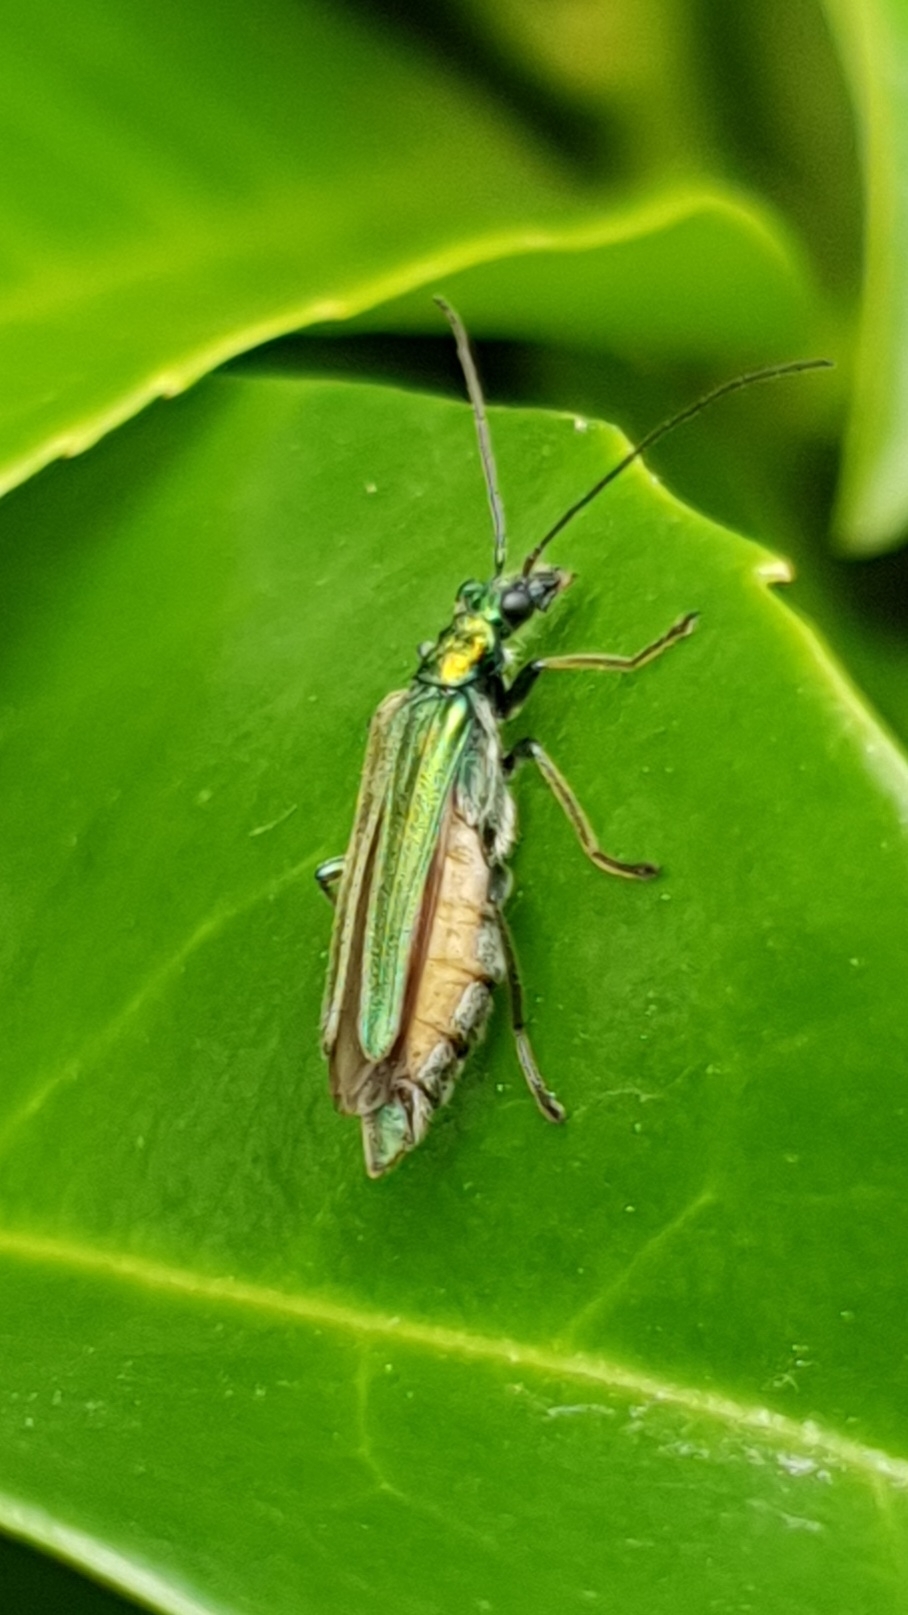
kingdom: Animalia
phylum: Arthropoda
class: Insecta
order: Coleoptera
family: Oedemeridae
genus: Oedemera
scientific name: Oedemera nobilis
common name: Swollen-thighed beetle
